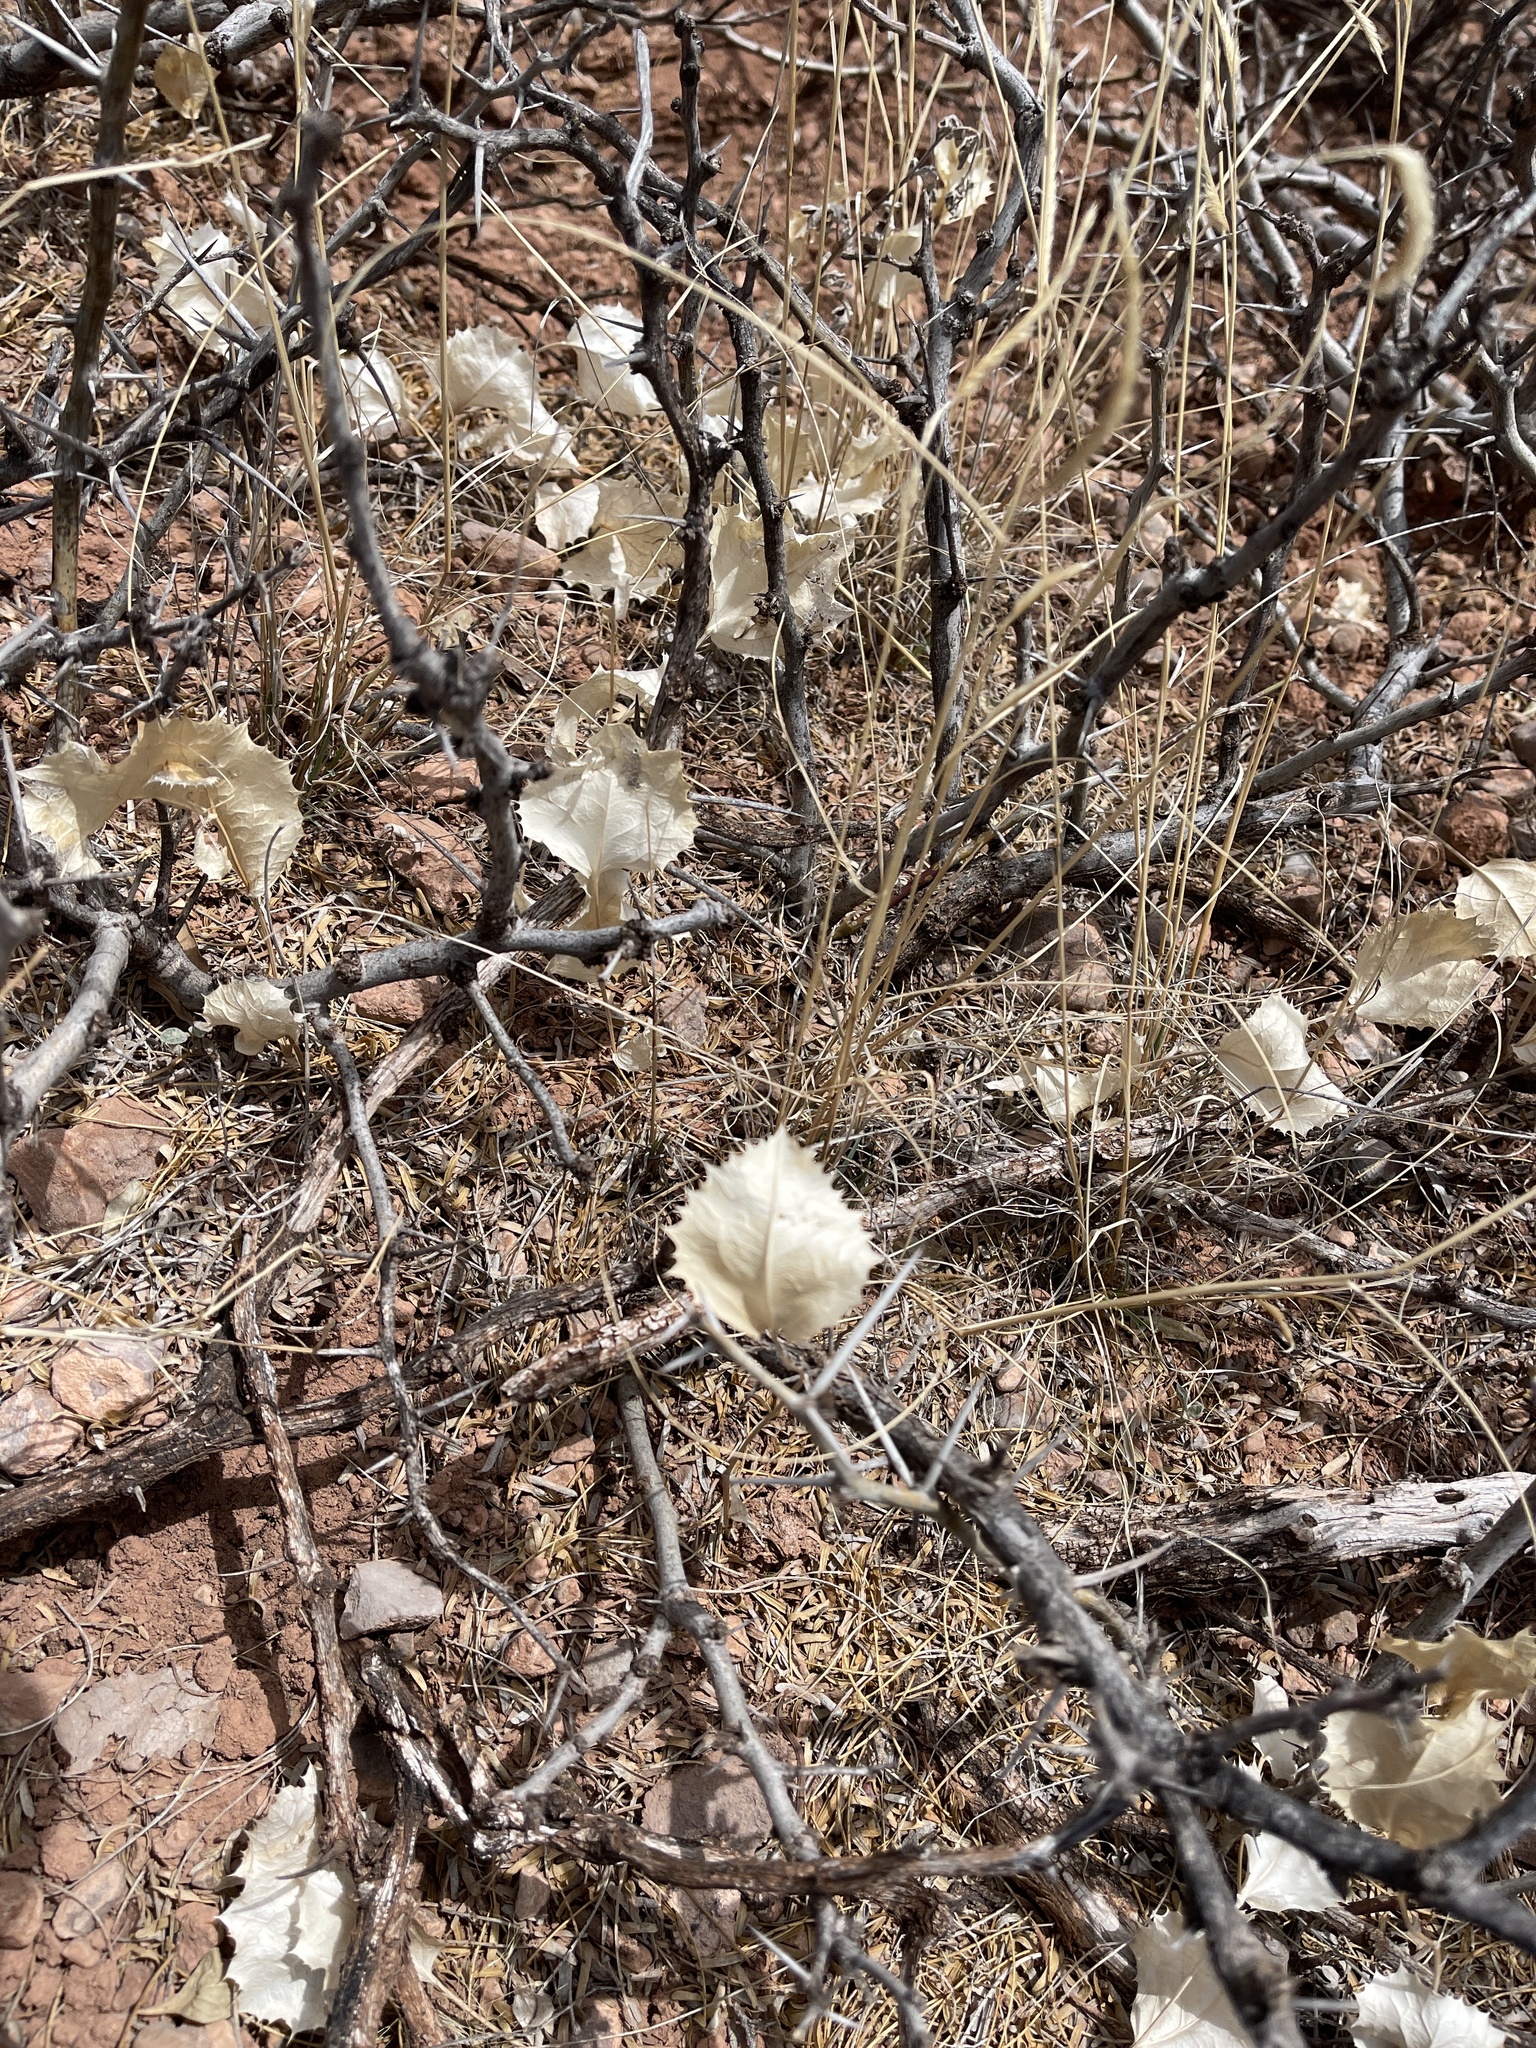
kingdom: Plantae
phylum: Tracheophyta
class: Magnoliopsida
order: Asterales
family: Asteraceae
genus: Acourtia
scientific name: Acourtia nana
